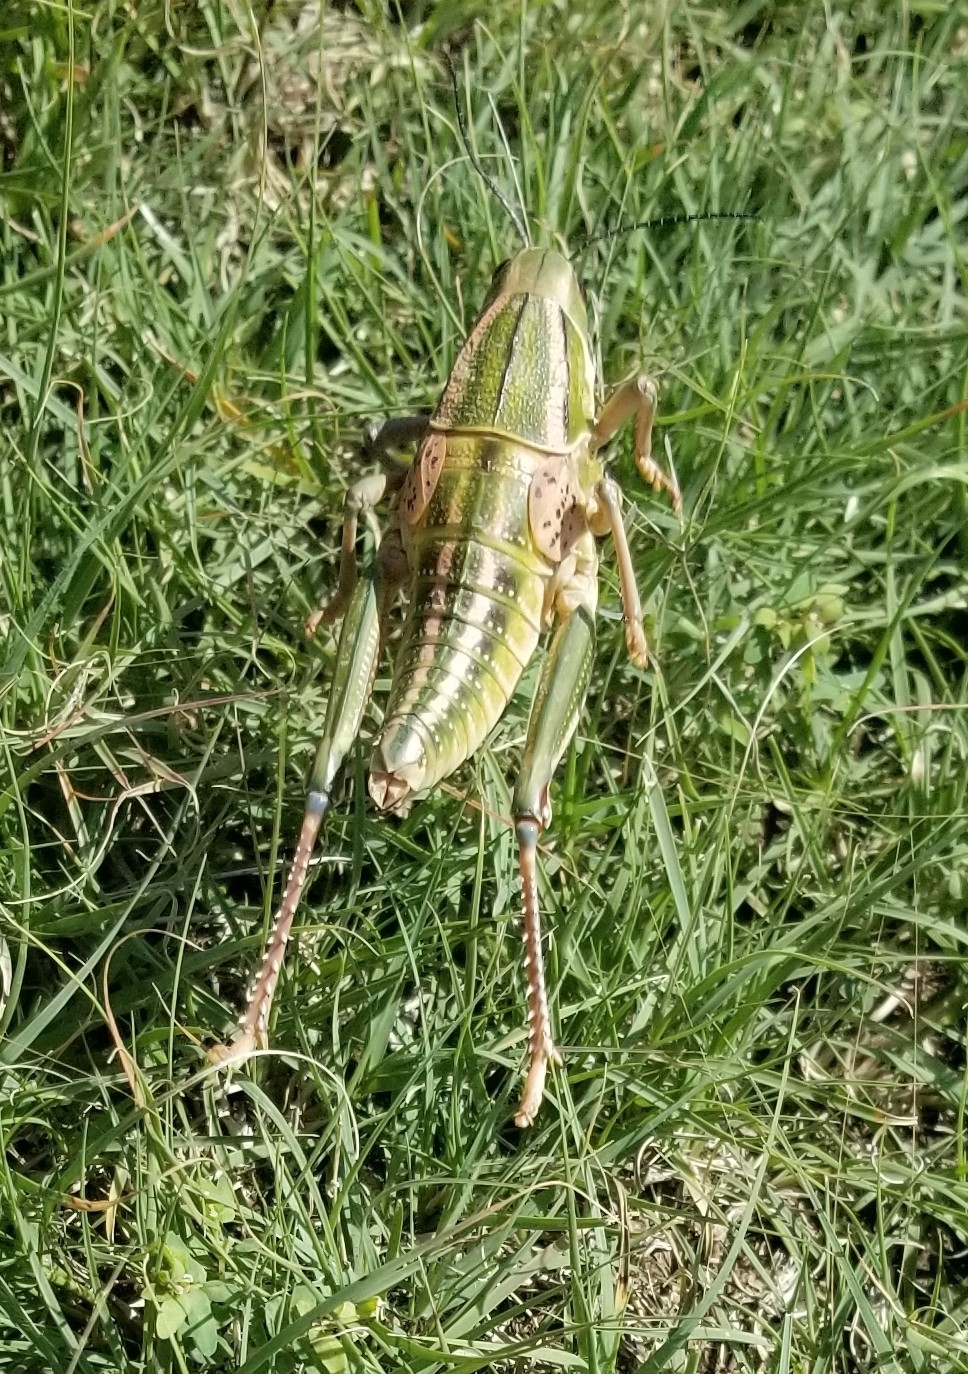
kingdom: Animalia
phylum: Arthropoda
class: Insecta
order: Orthoptera
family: Romaleidae
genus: Brachystola
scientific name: Brachystola magna
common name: Plains lubber grasshopper
